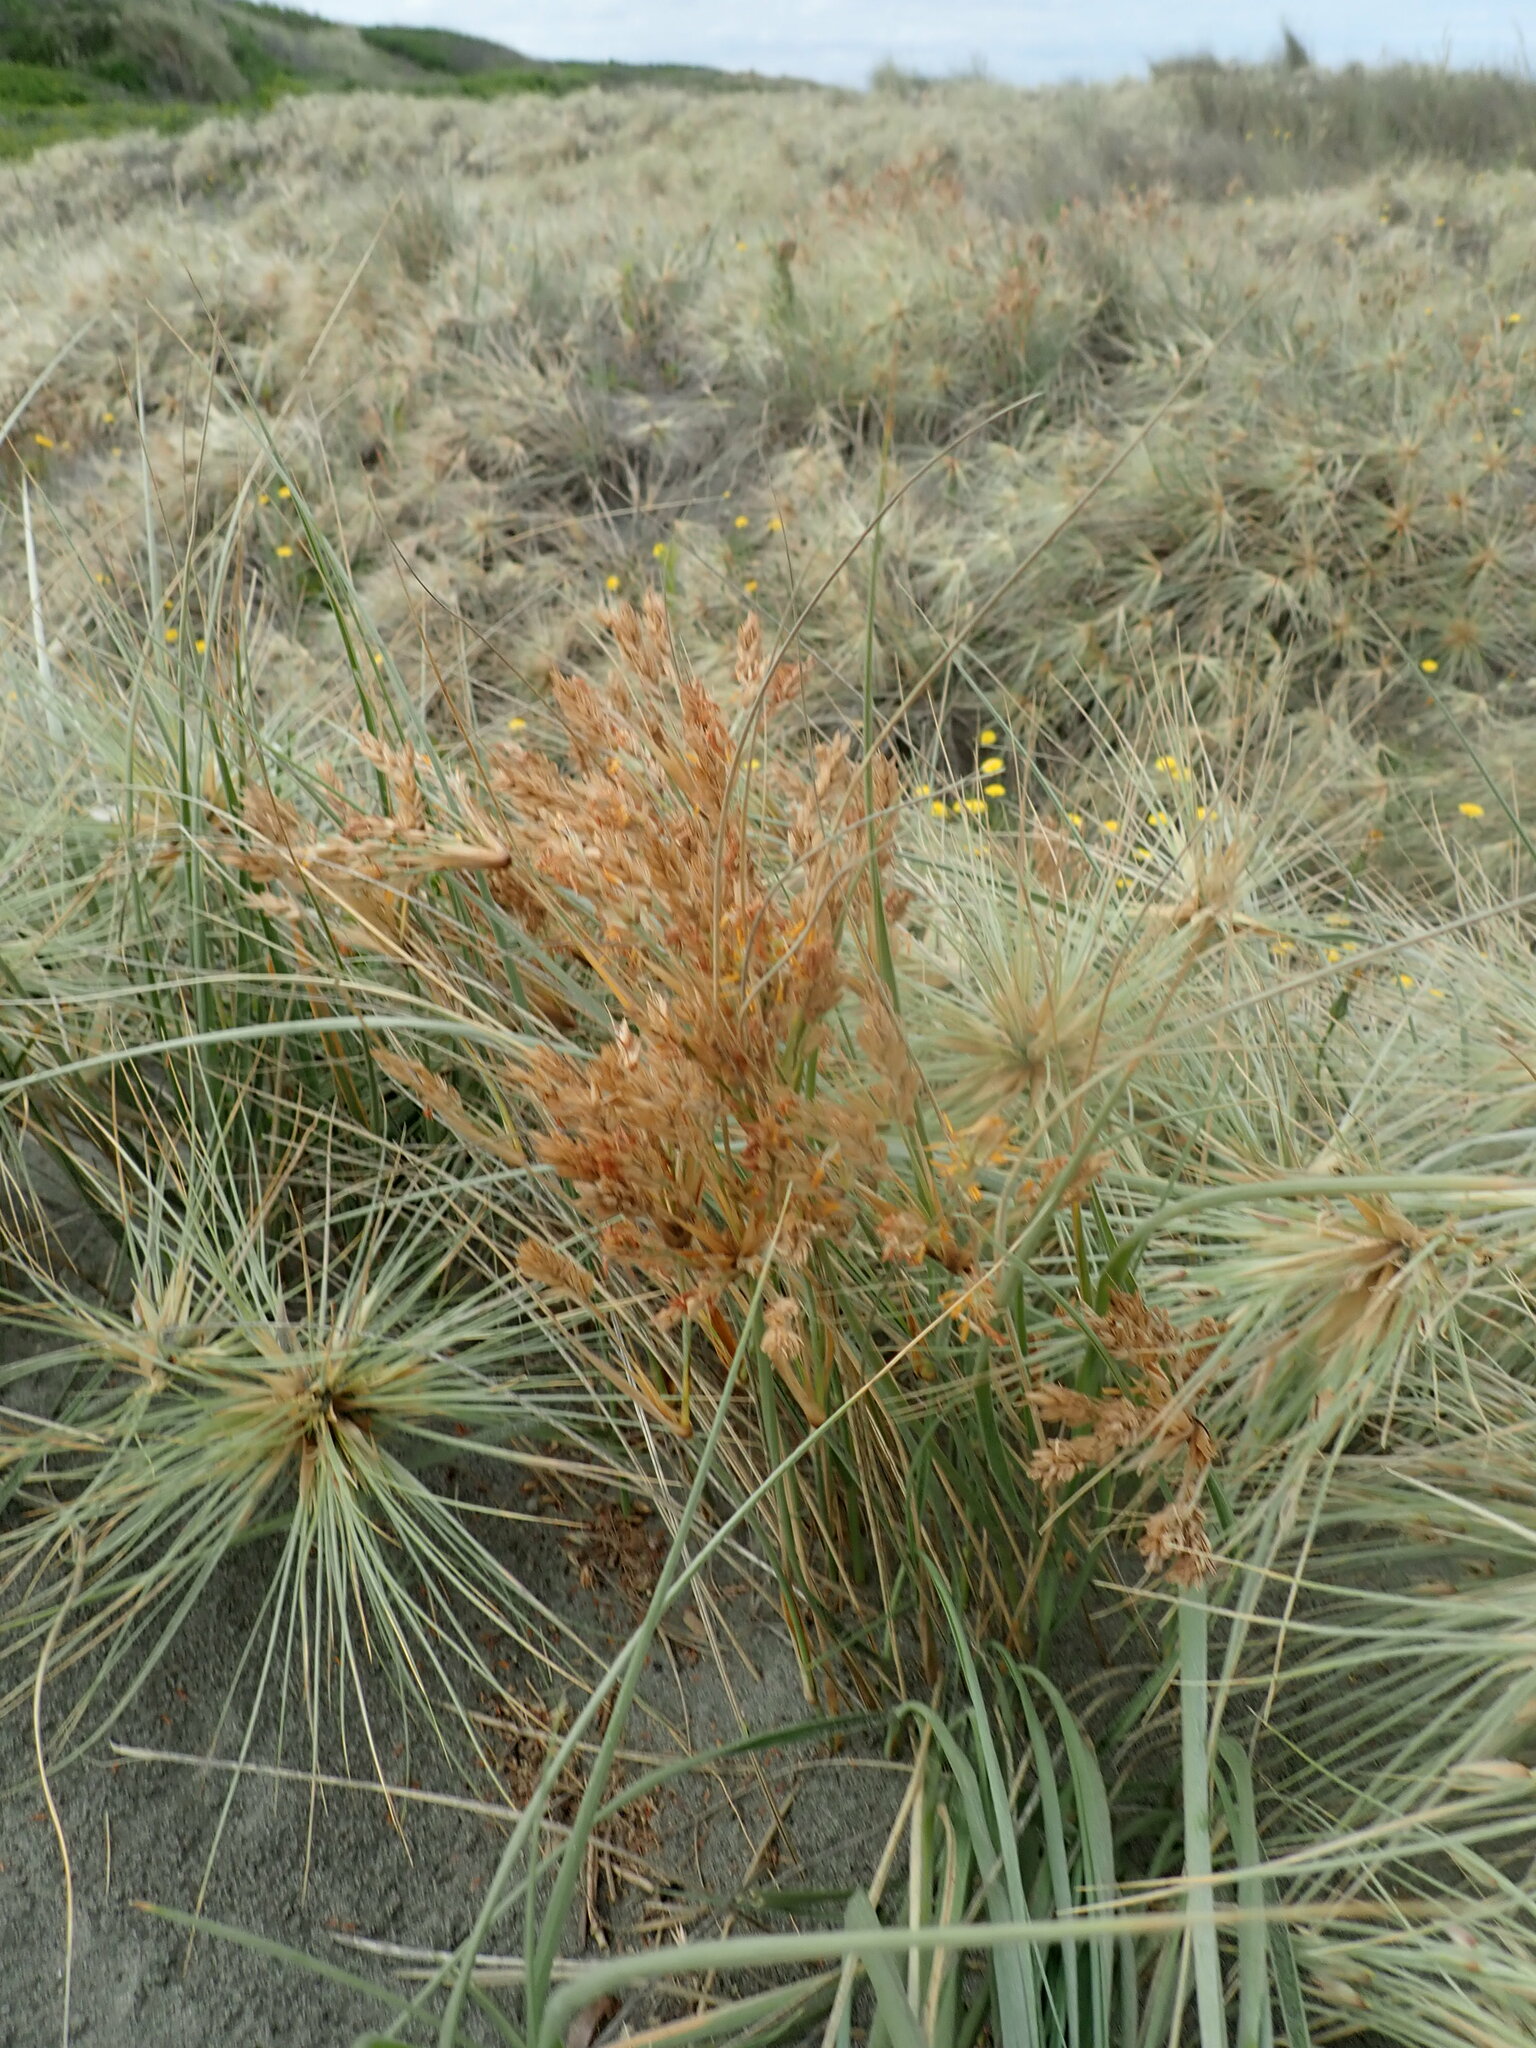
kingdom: Plantae
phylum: Tracheophyta
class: Liliopsida
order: Poales
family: Poaceae
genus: Spinifex
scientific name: Spinifex sericeus
